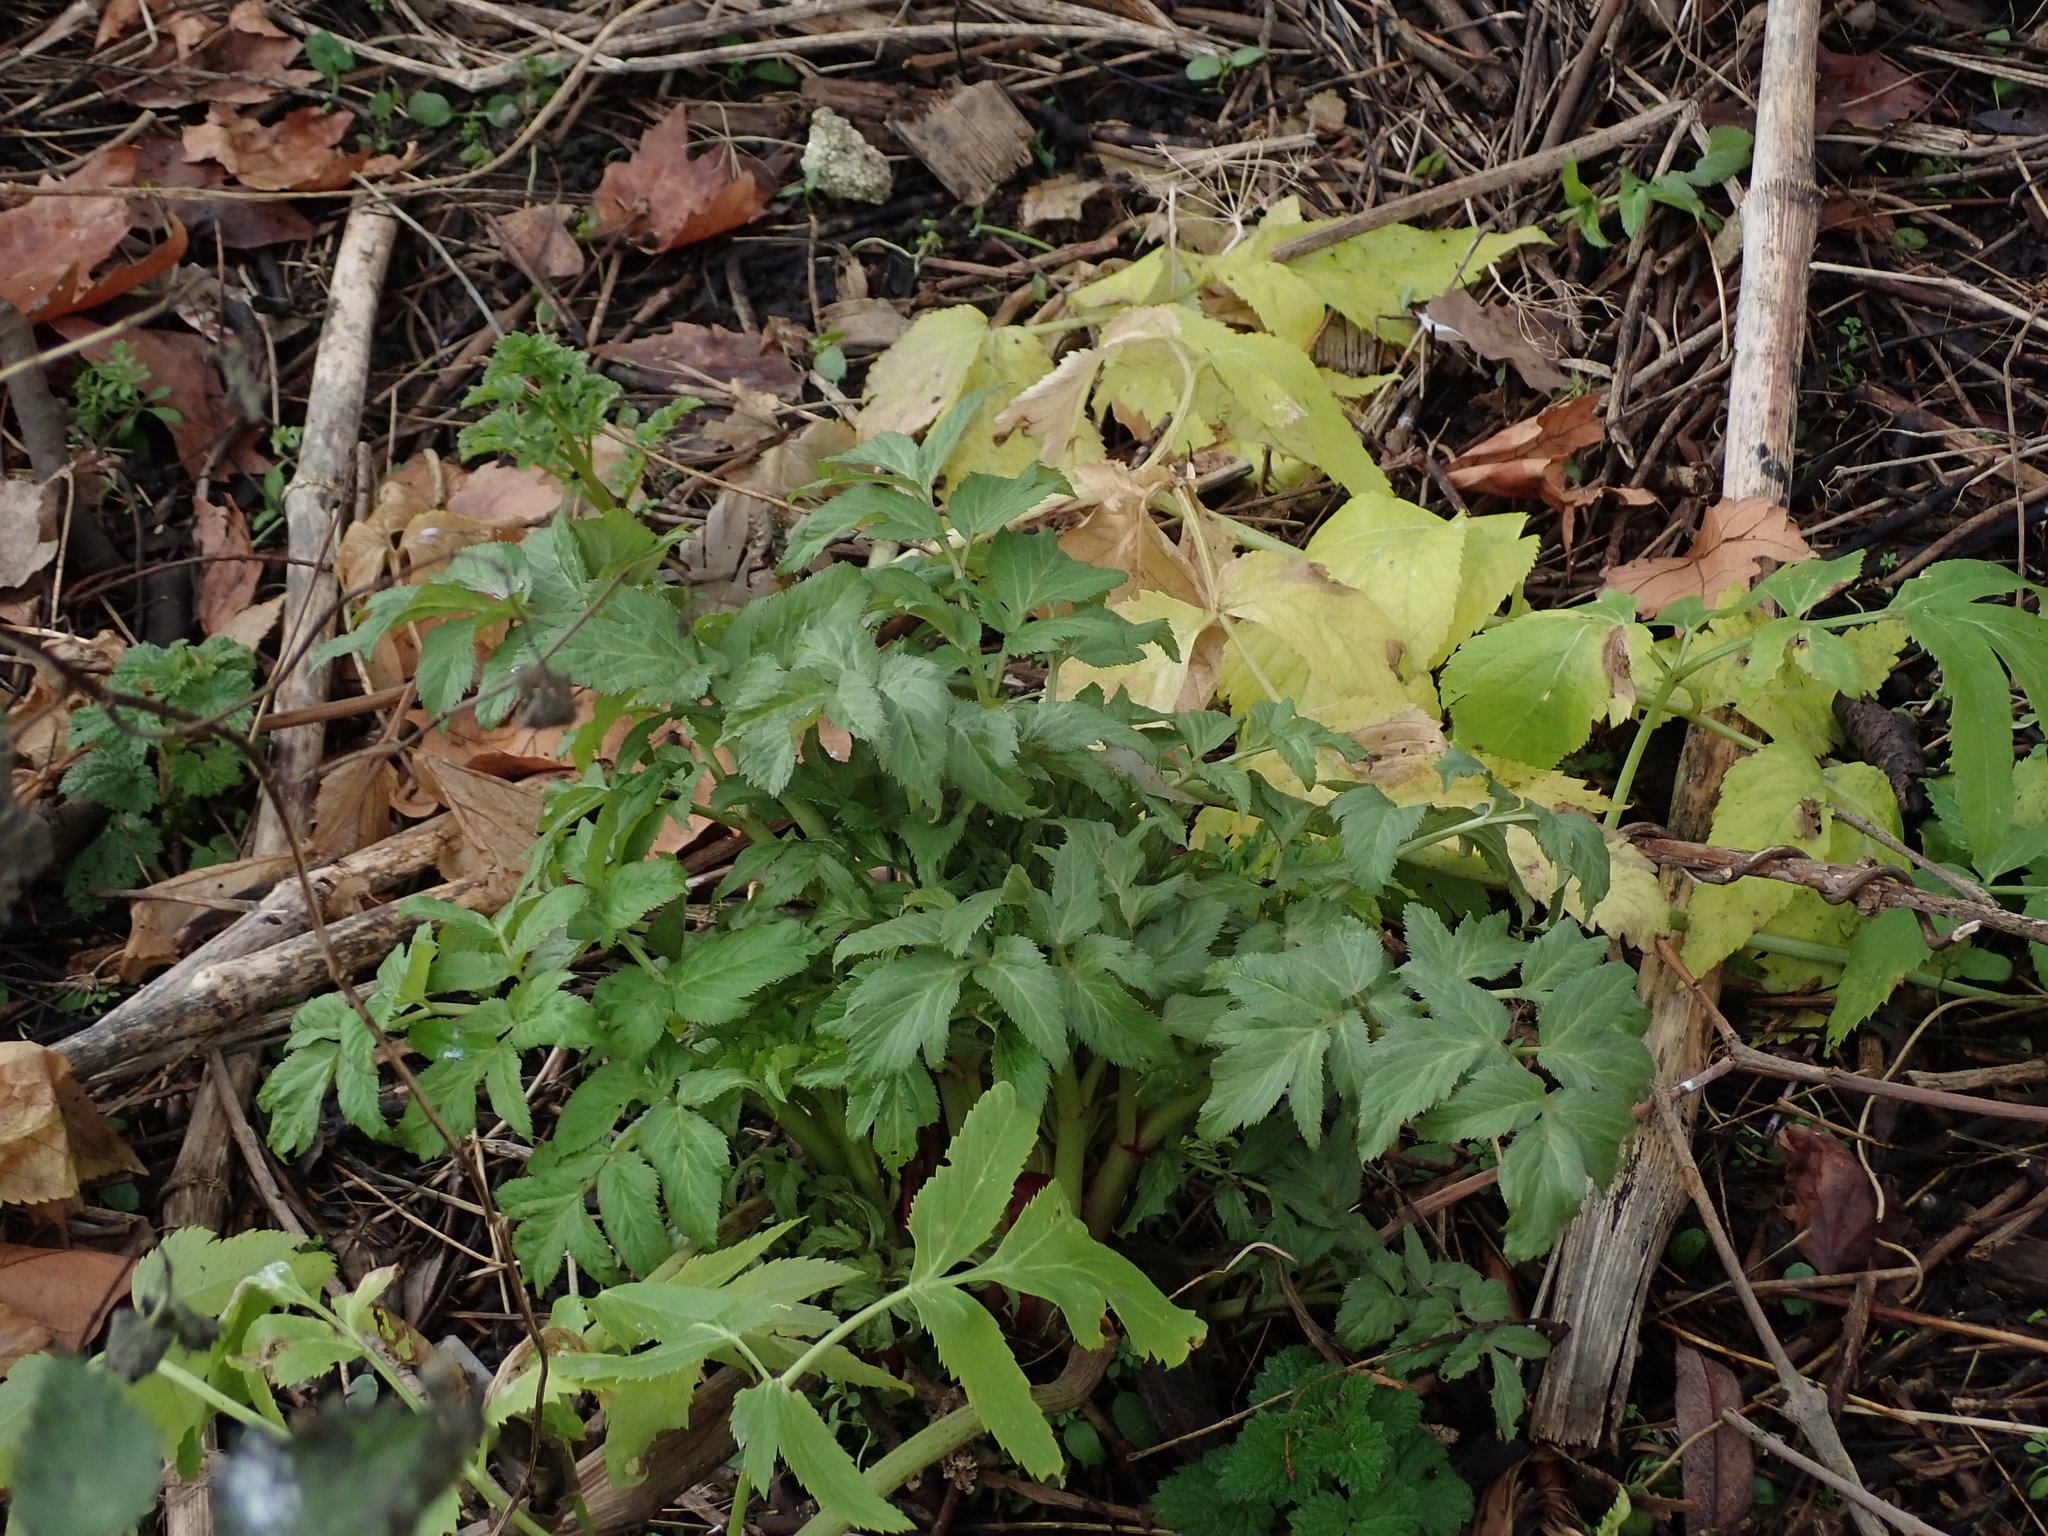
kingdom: Plantae
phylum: Tracheophyta
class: Magnoliopsida
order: Apiales
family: Apiaceae
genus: Angelica
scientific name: Angelica archangelica
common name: Garden angelica
